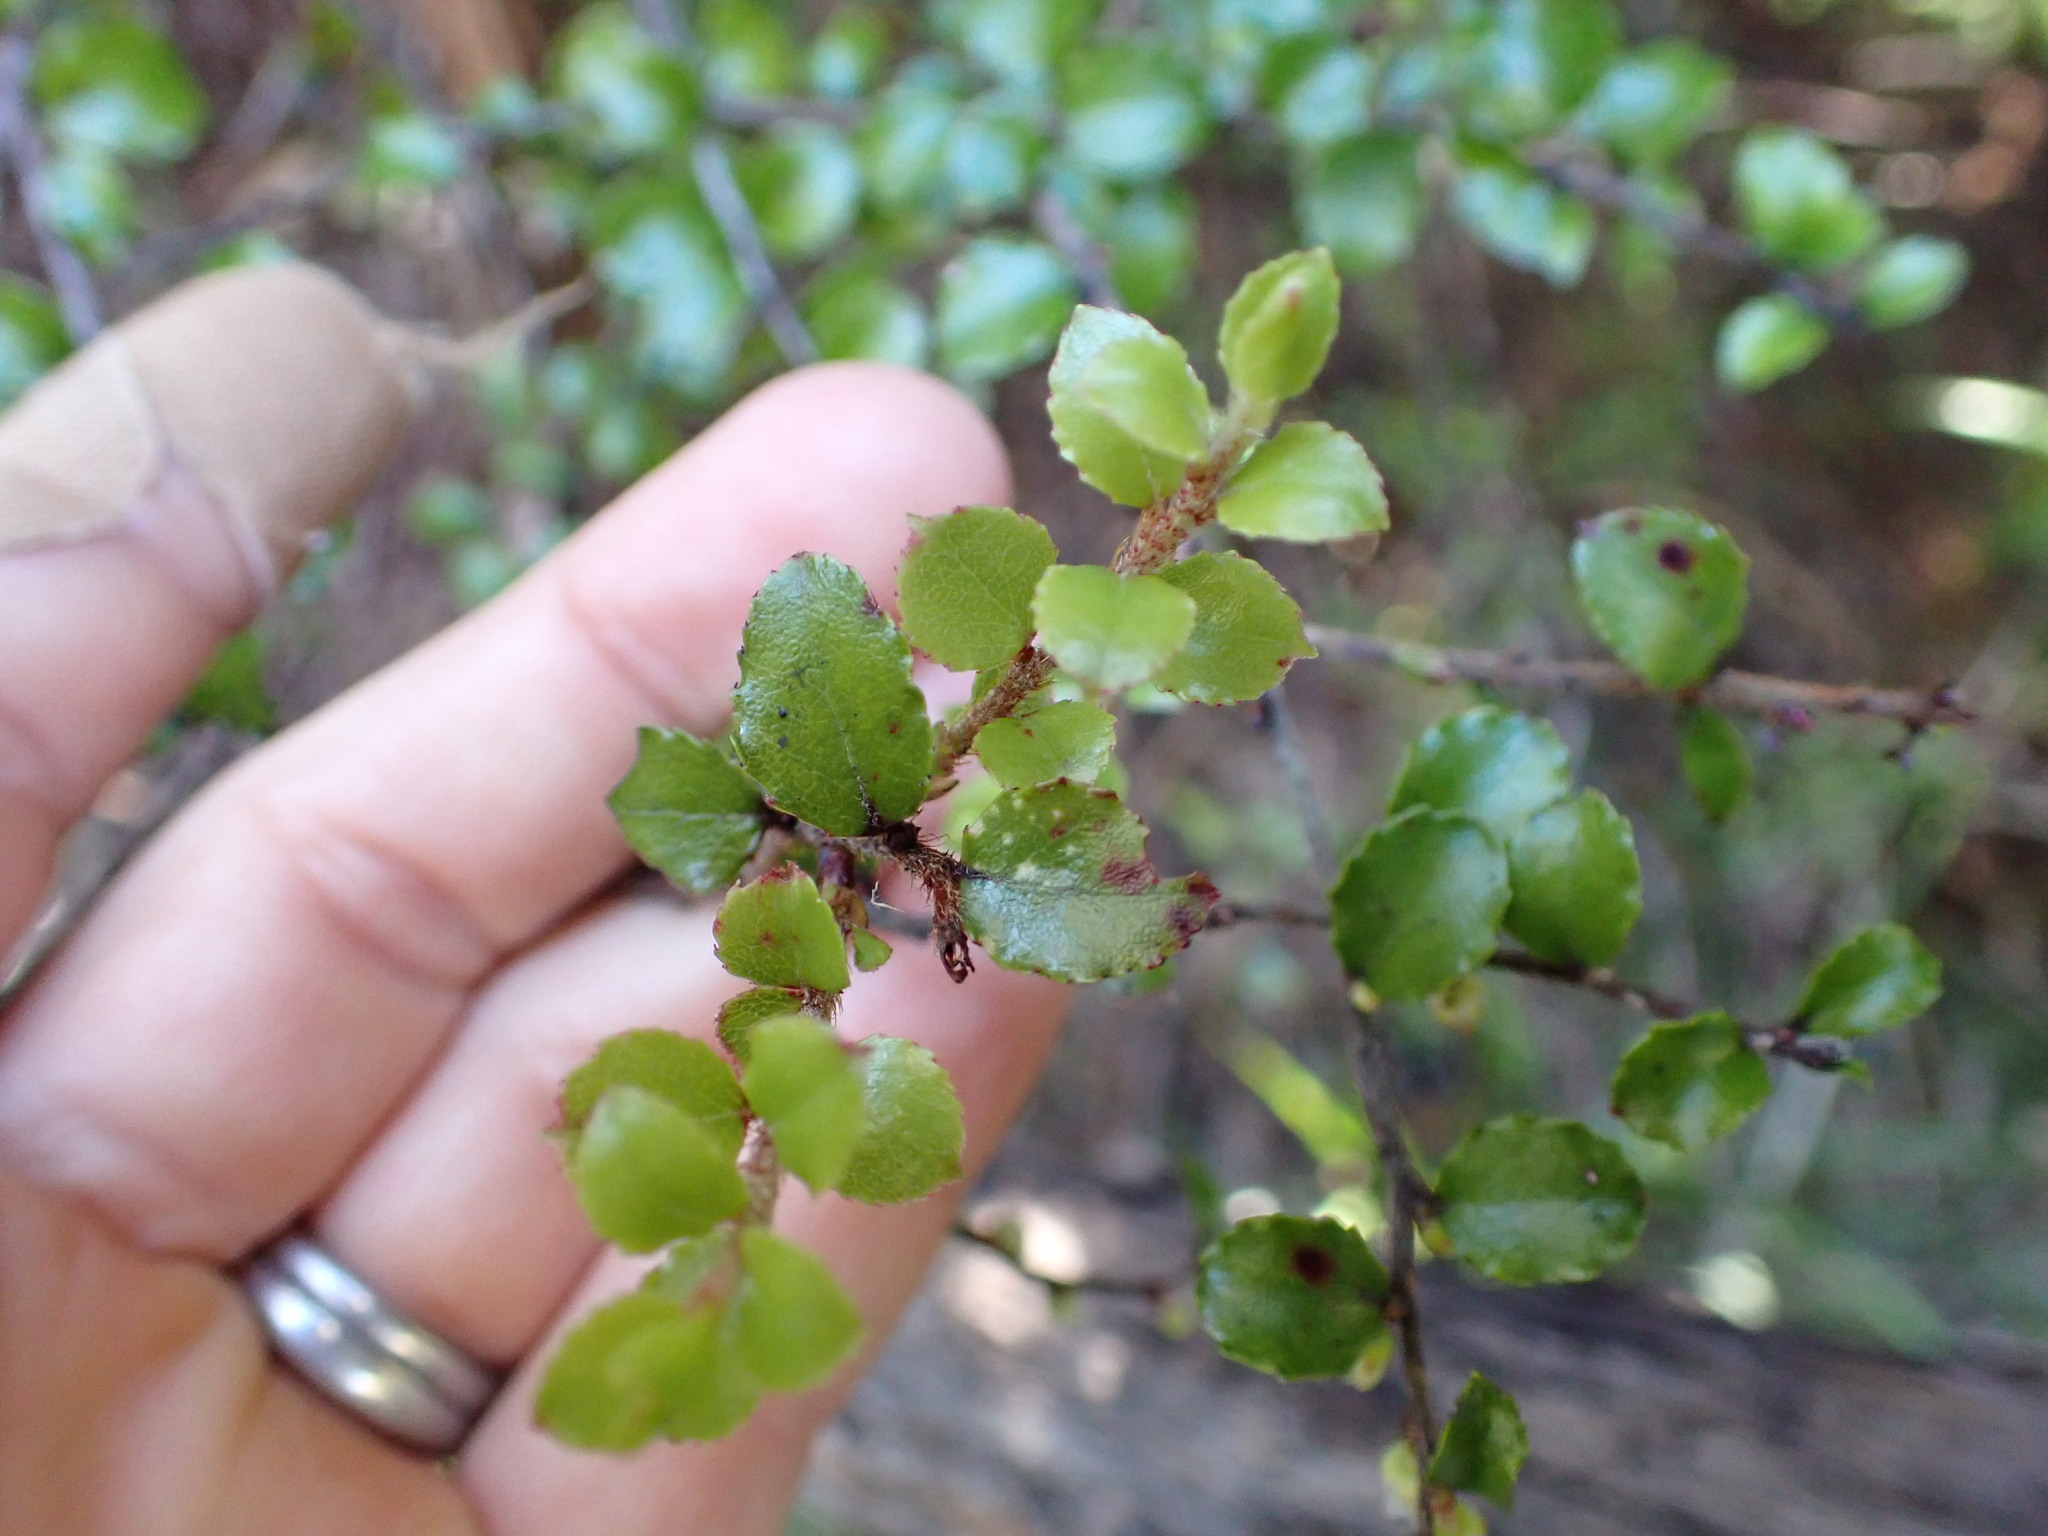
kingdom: Plantae
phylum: Tracheophyta
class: Magnoliopsida
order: Ericales
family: Ericaceae
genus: Gaultheria
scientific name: Gaultheria antipoda
